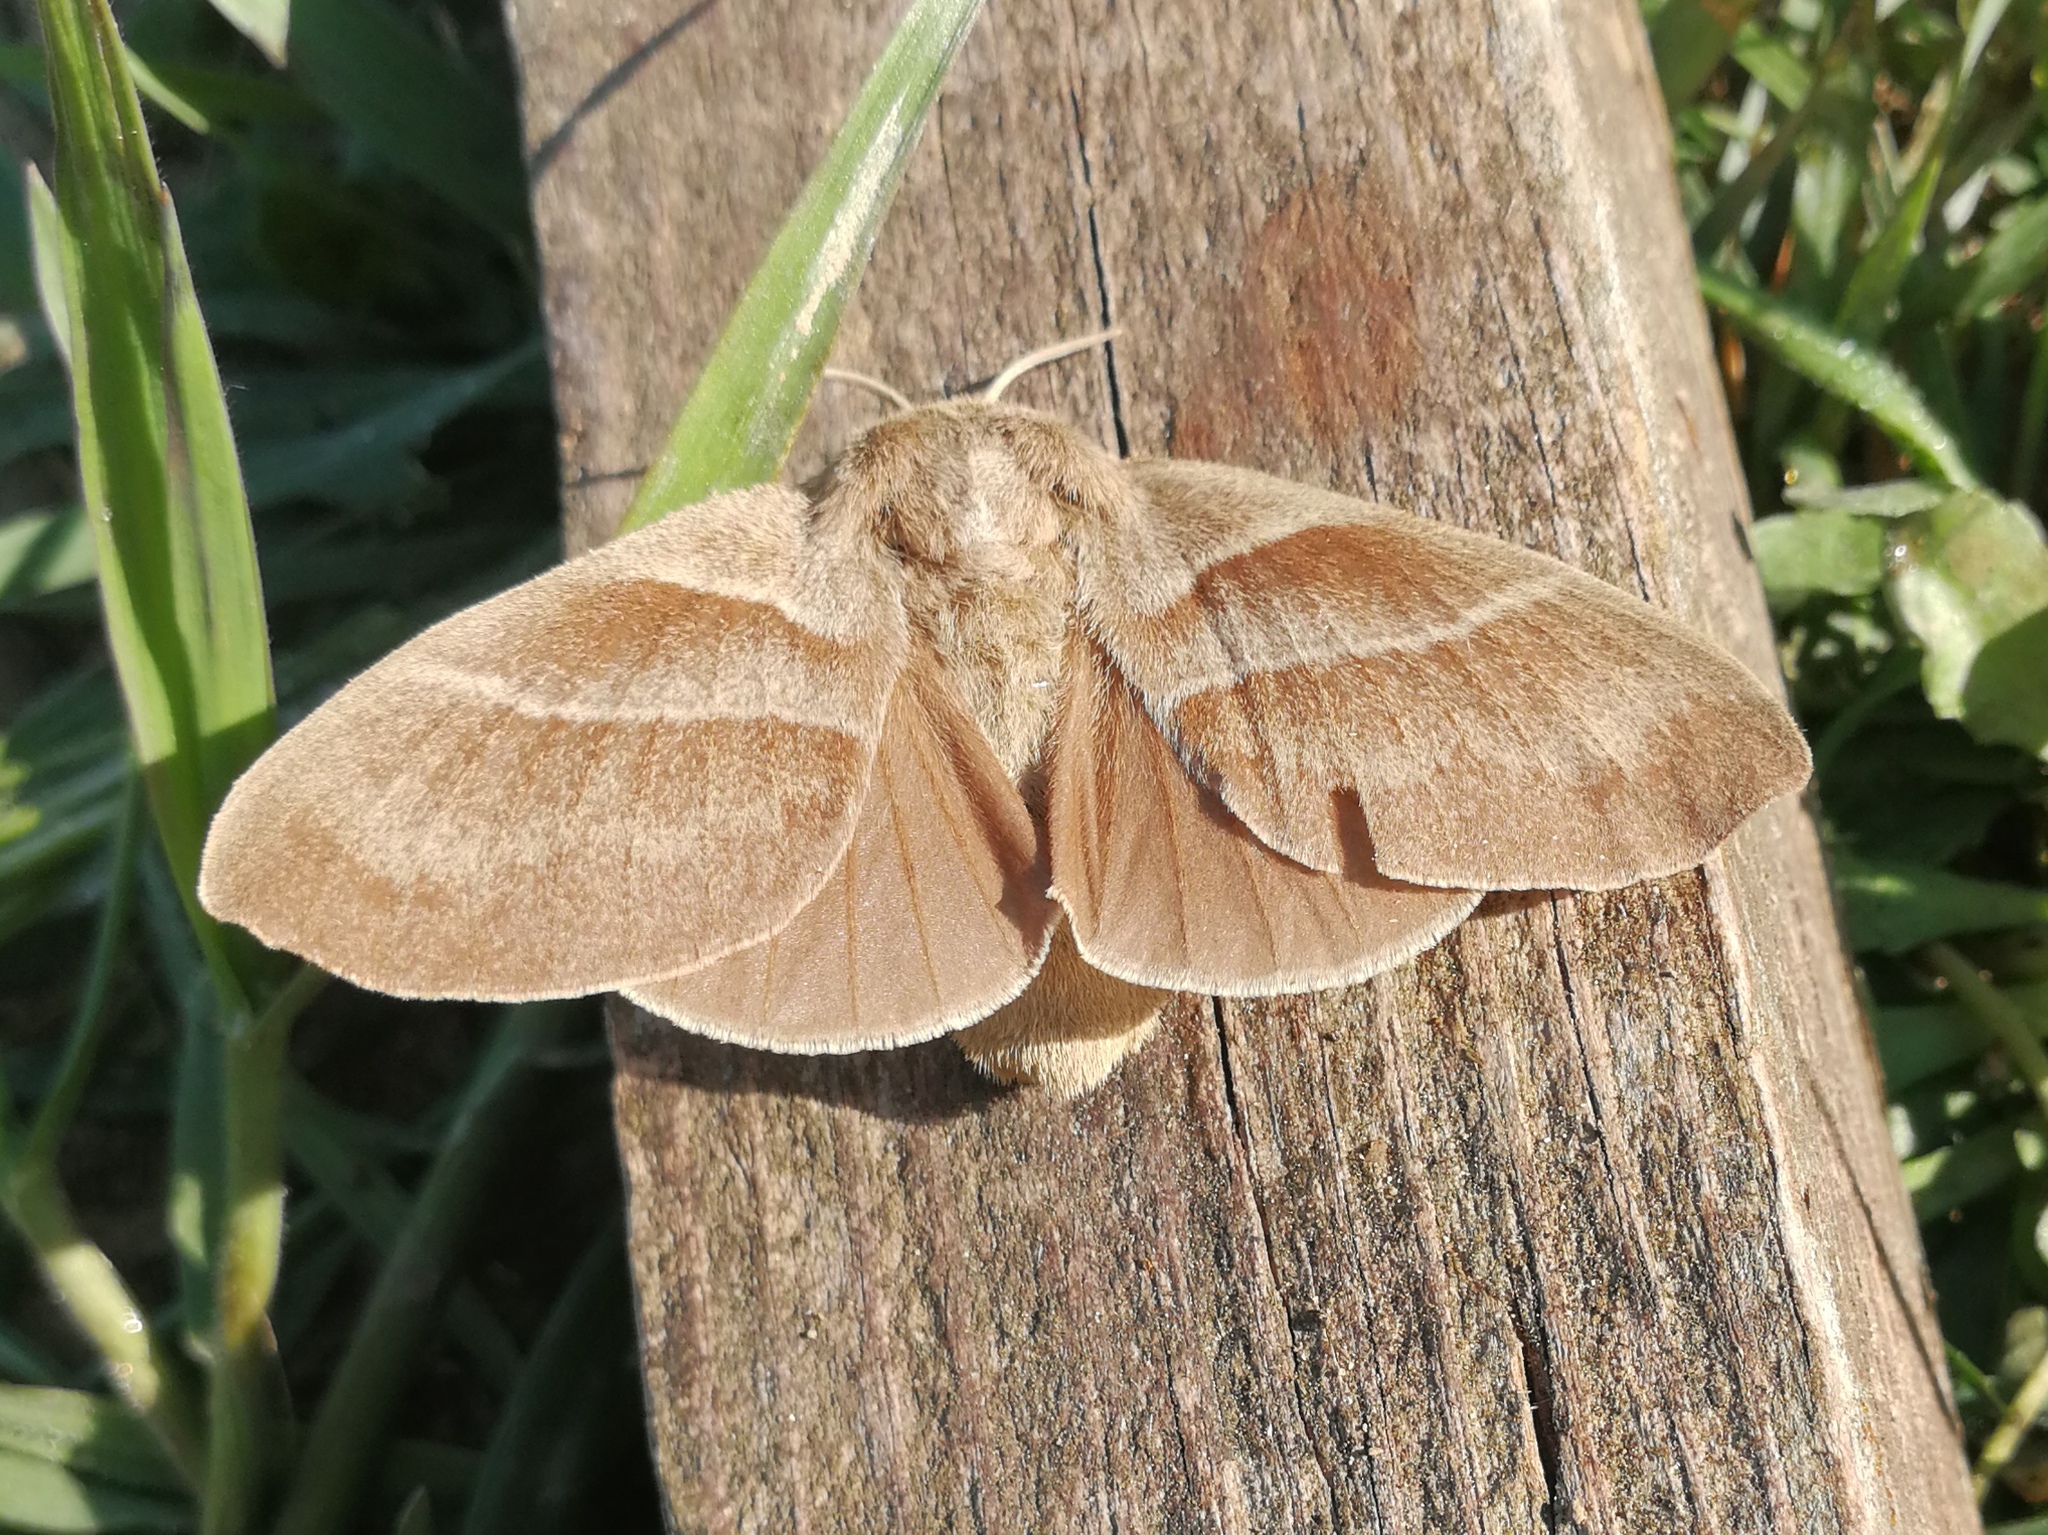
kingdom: Animalia
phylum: Arthropoda
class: Insecta
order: Lepidoptera
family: Lasiocampidae
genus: Macrothylacia
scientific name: Macrothylacia rubi
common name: Fox moth
